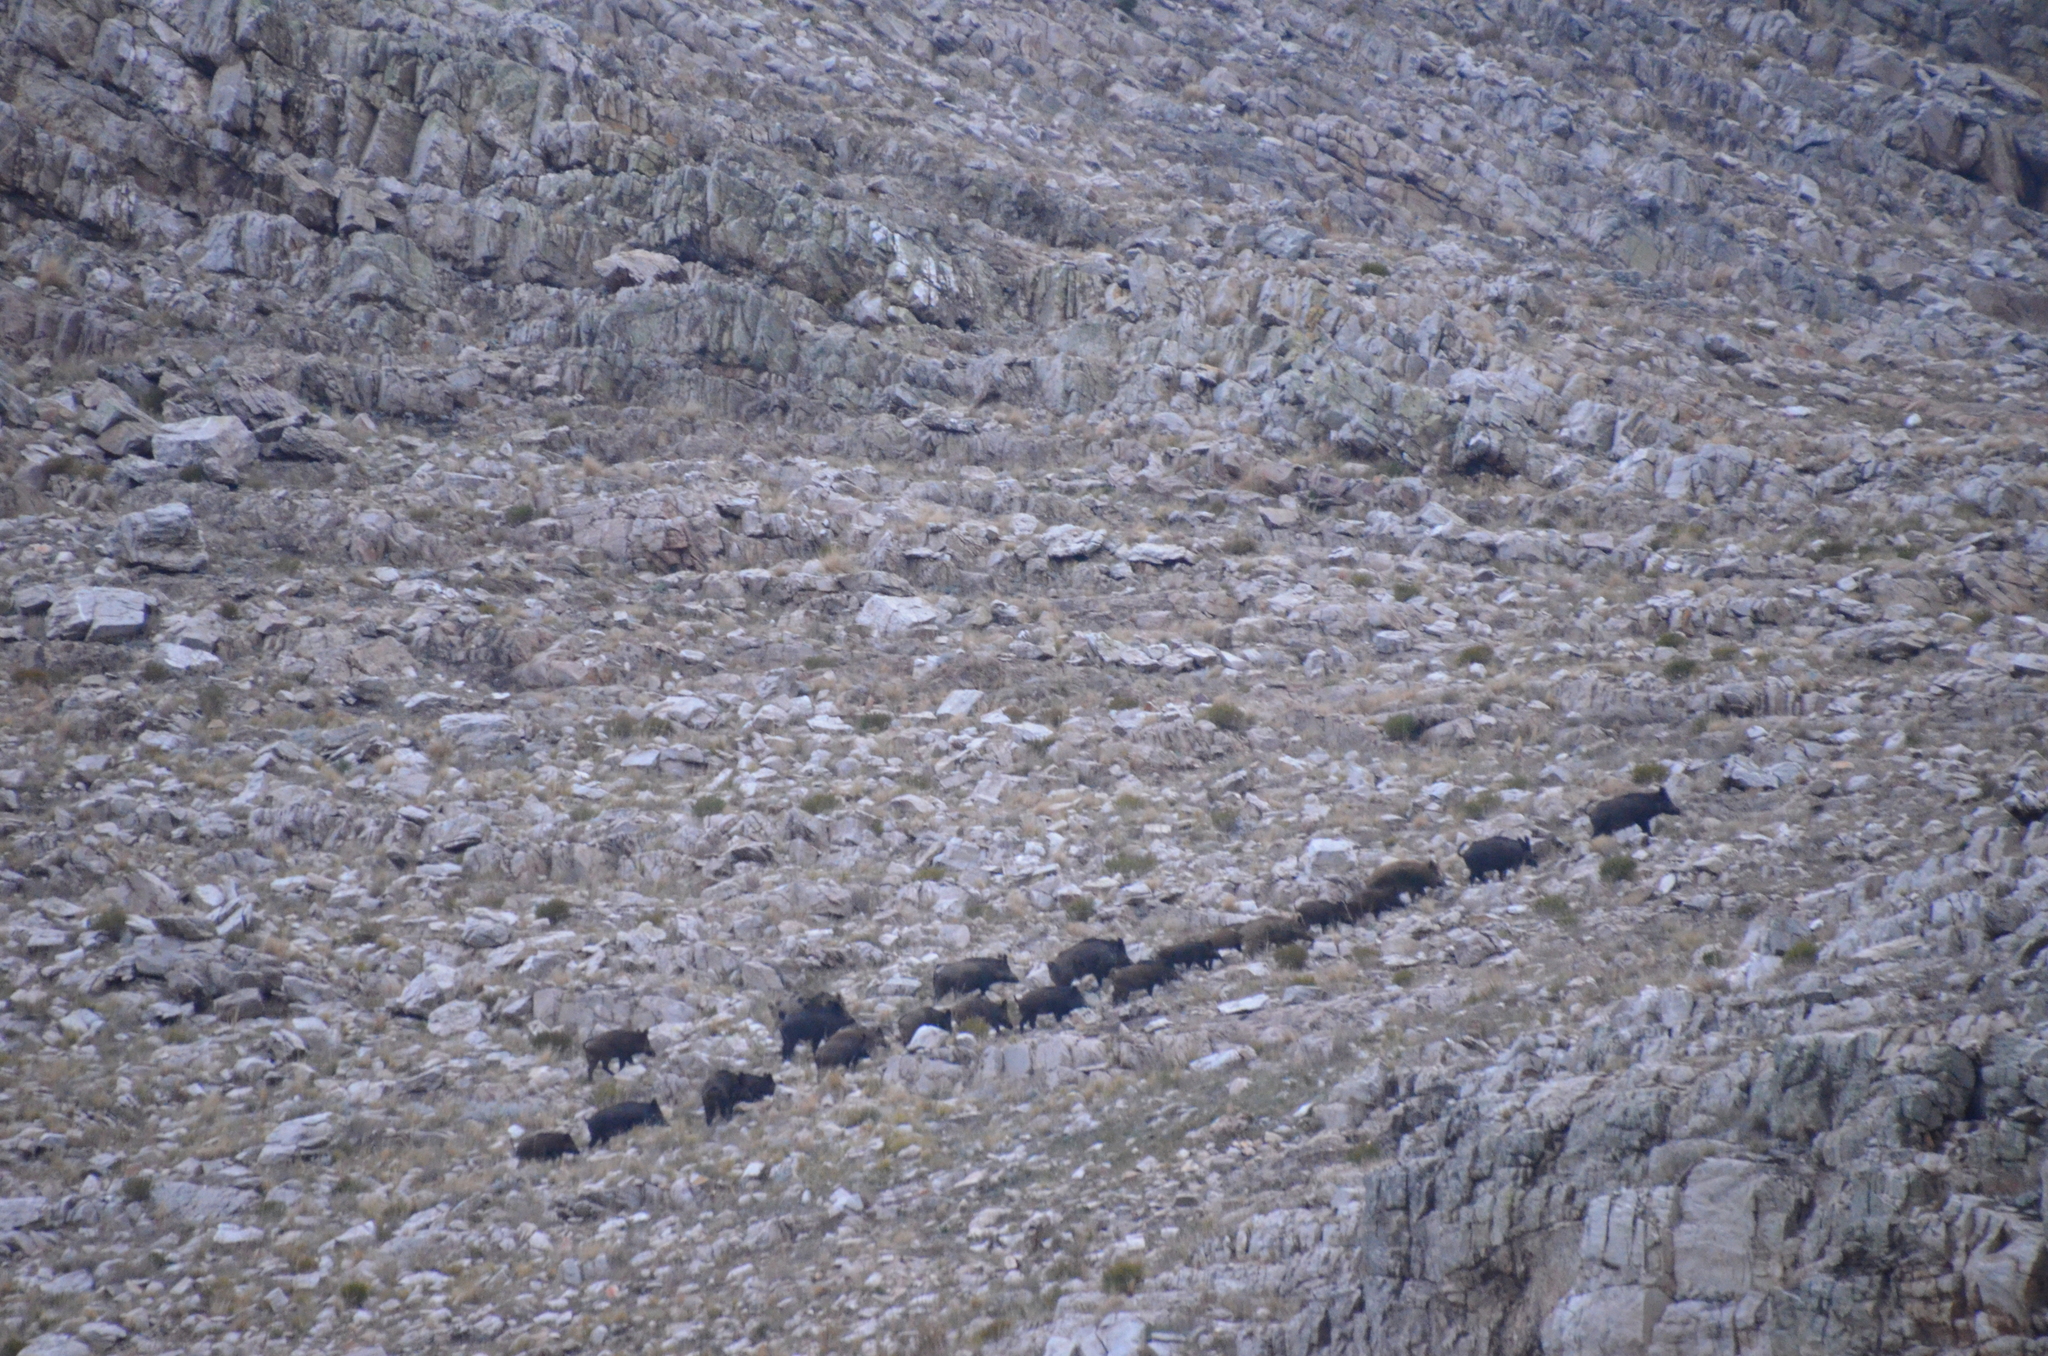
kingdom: Animalia
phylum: Chordata
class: Mammalia
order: Artiodactyla
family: Suidae
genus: Sus
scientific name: Sus scrofa
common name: Wild boar
